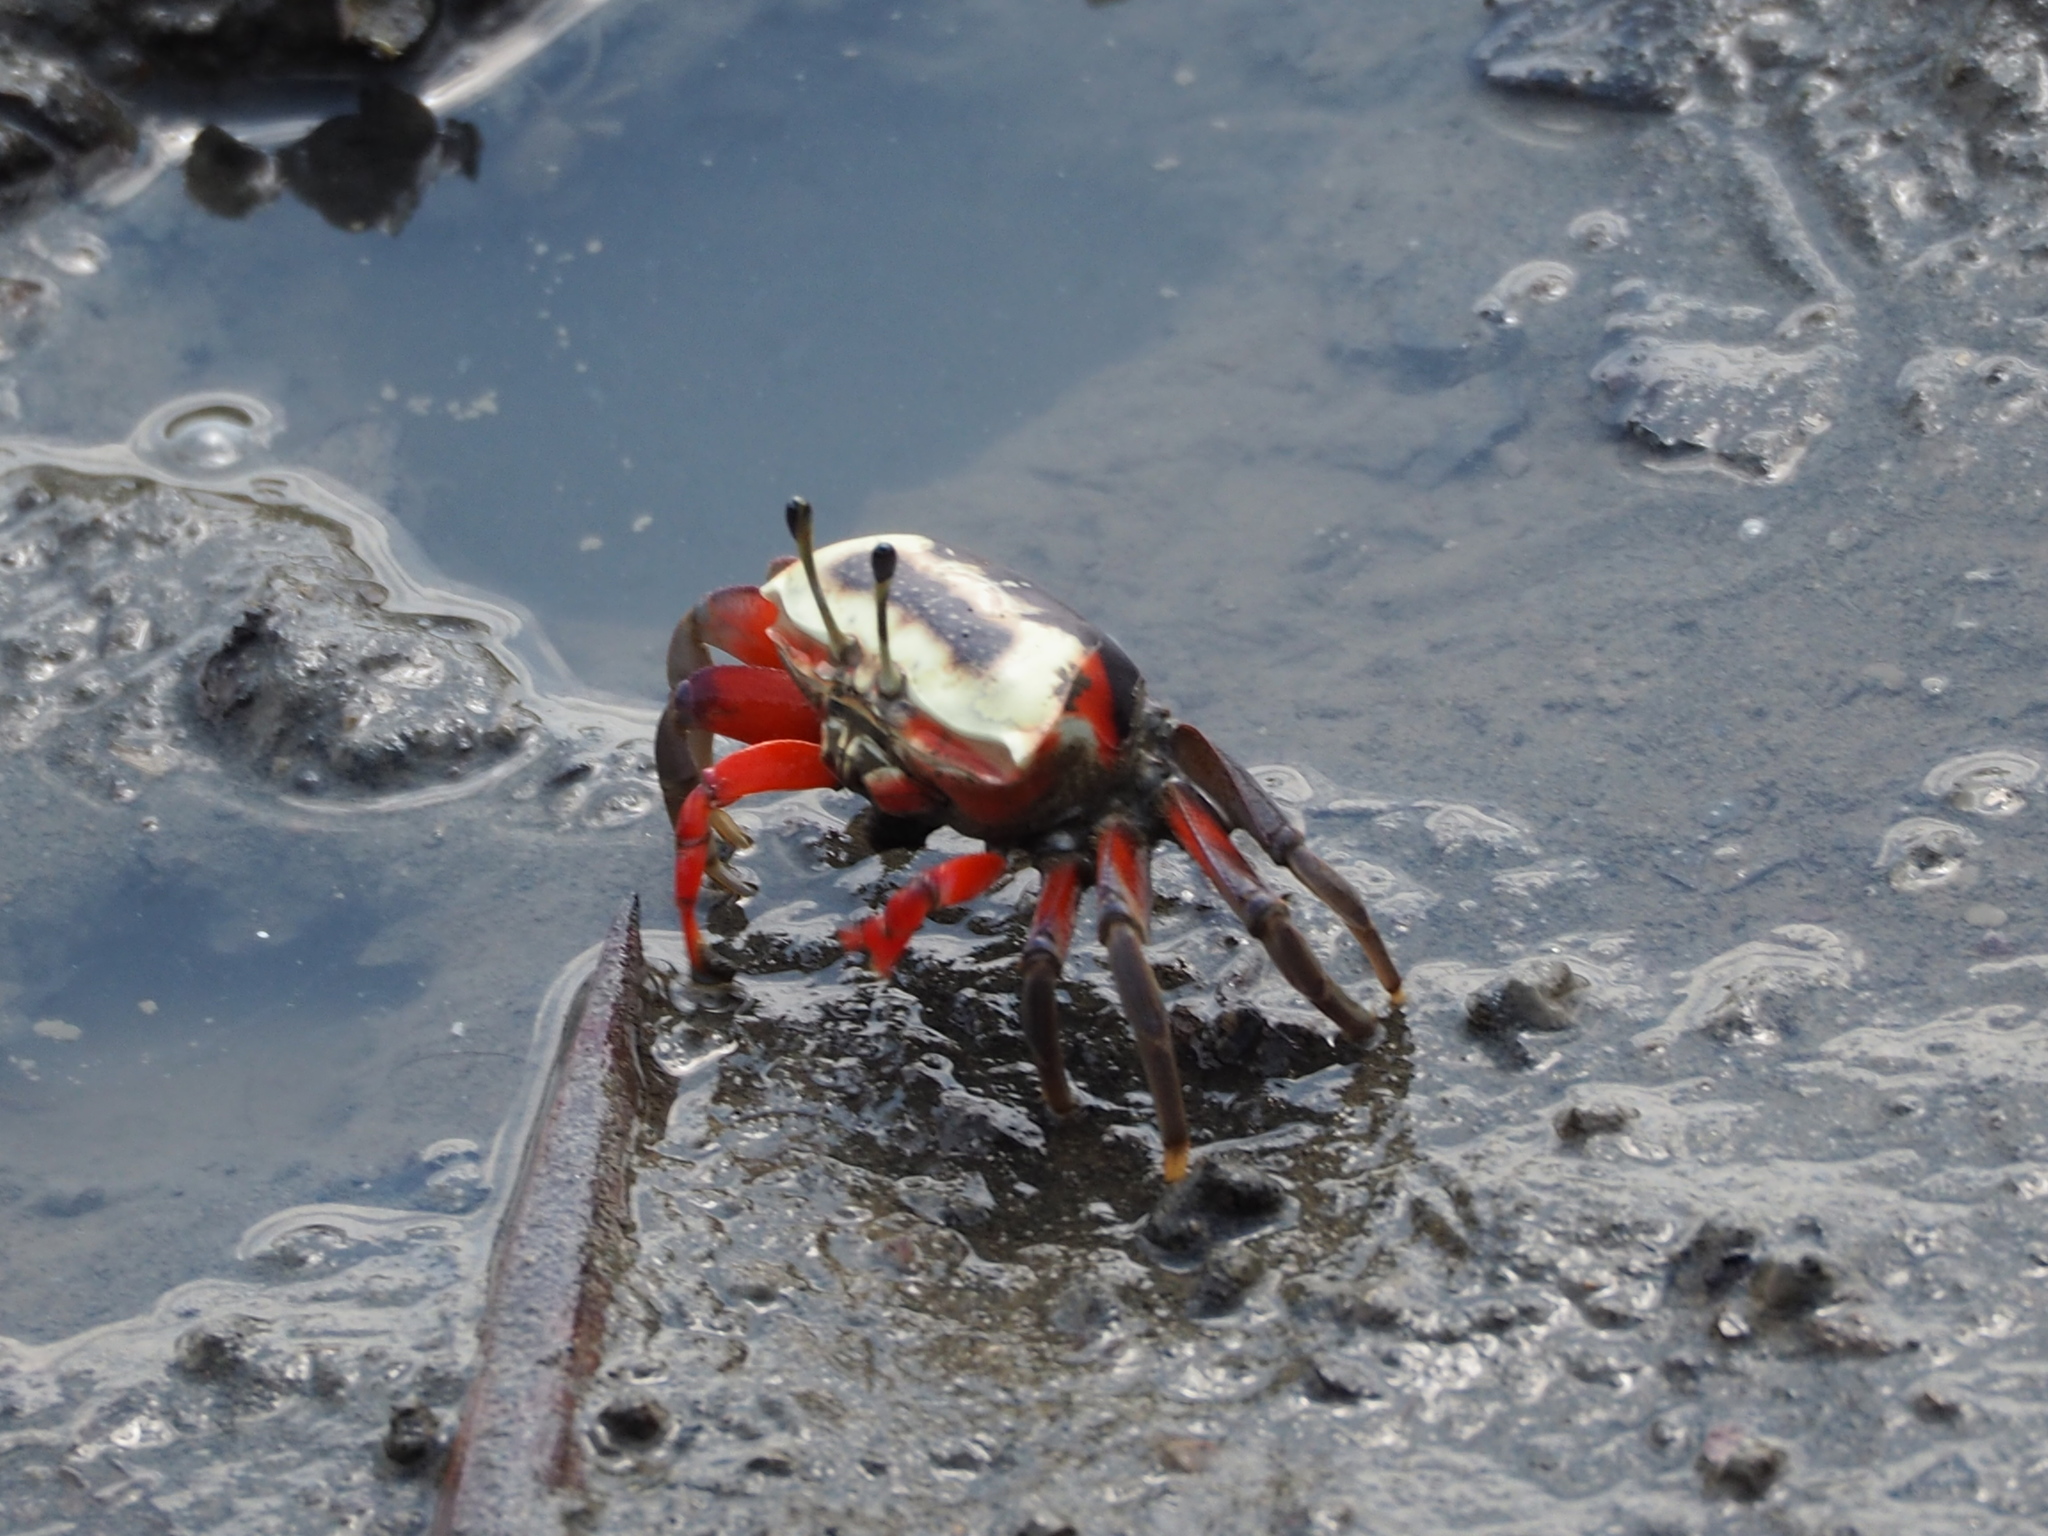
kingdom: Animalia
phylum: Arthropoda
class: Malacostraca
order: Decapoda
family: Ocypodidae
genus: Tubuca
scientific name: Tubuca arcuata
